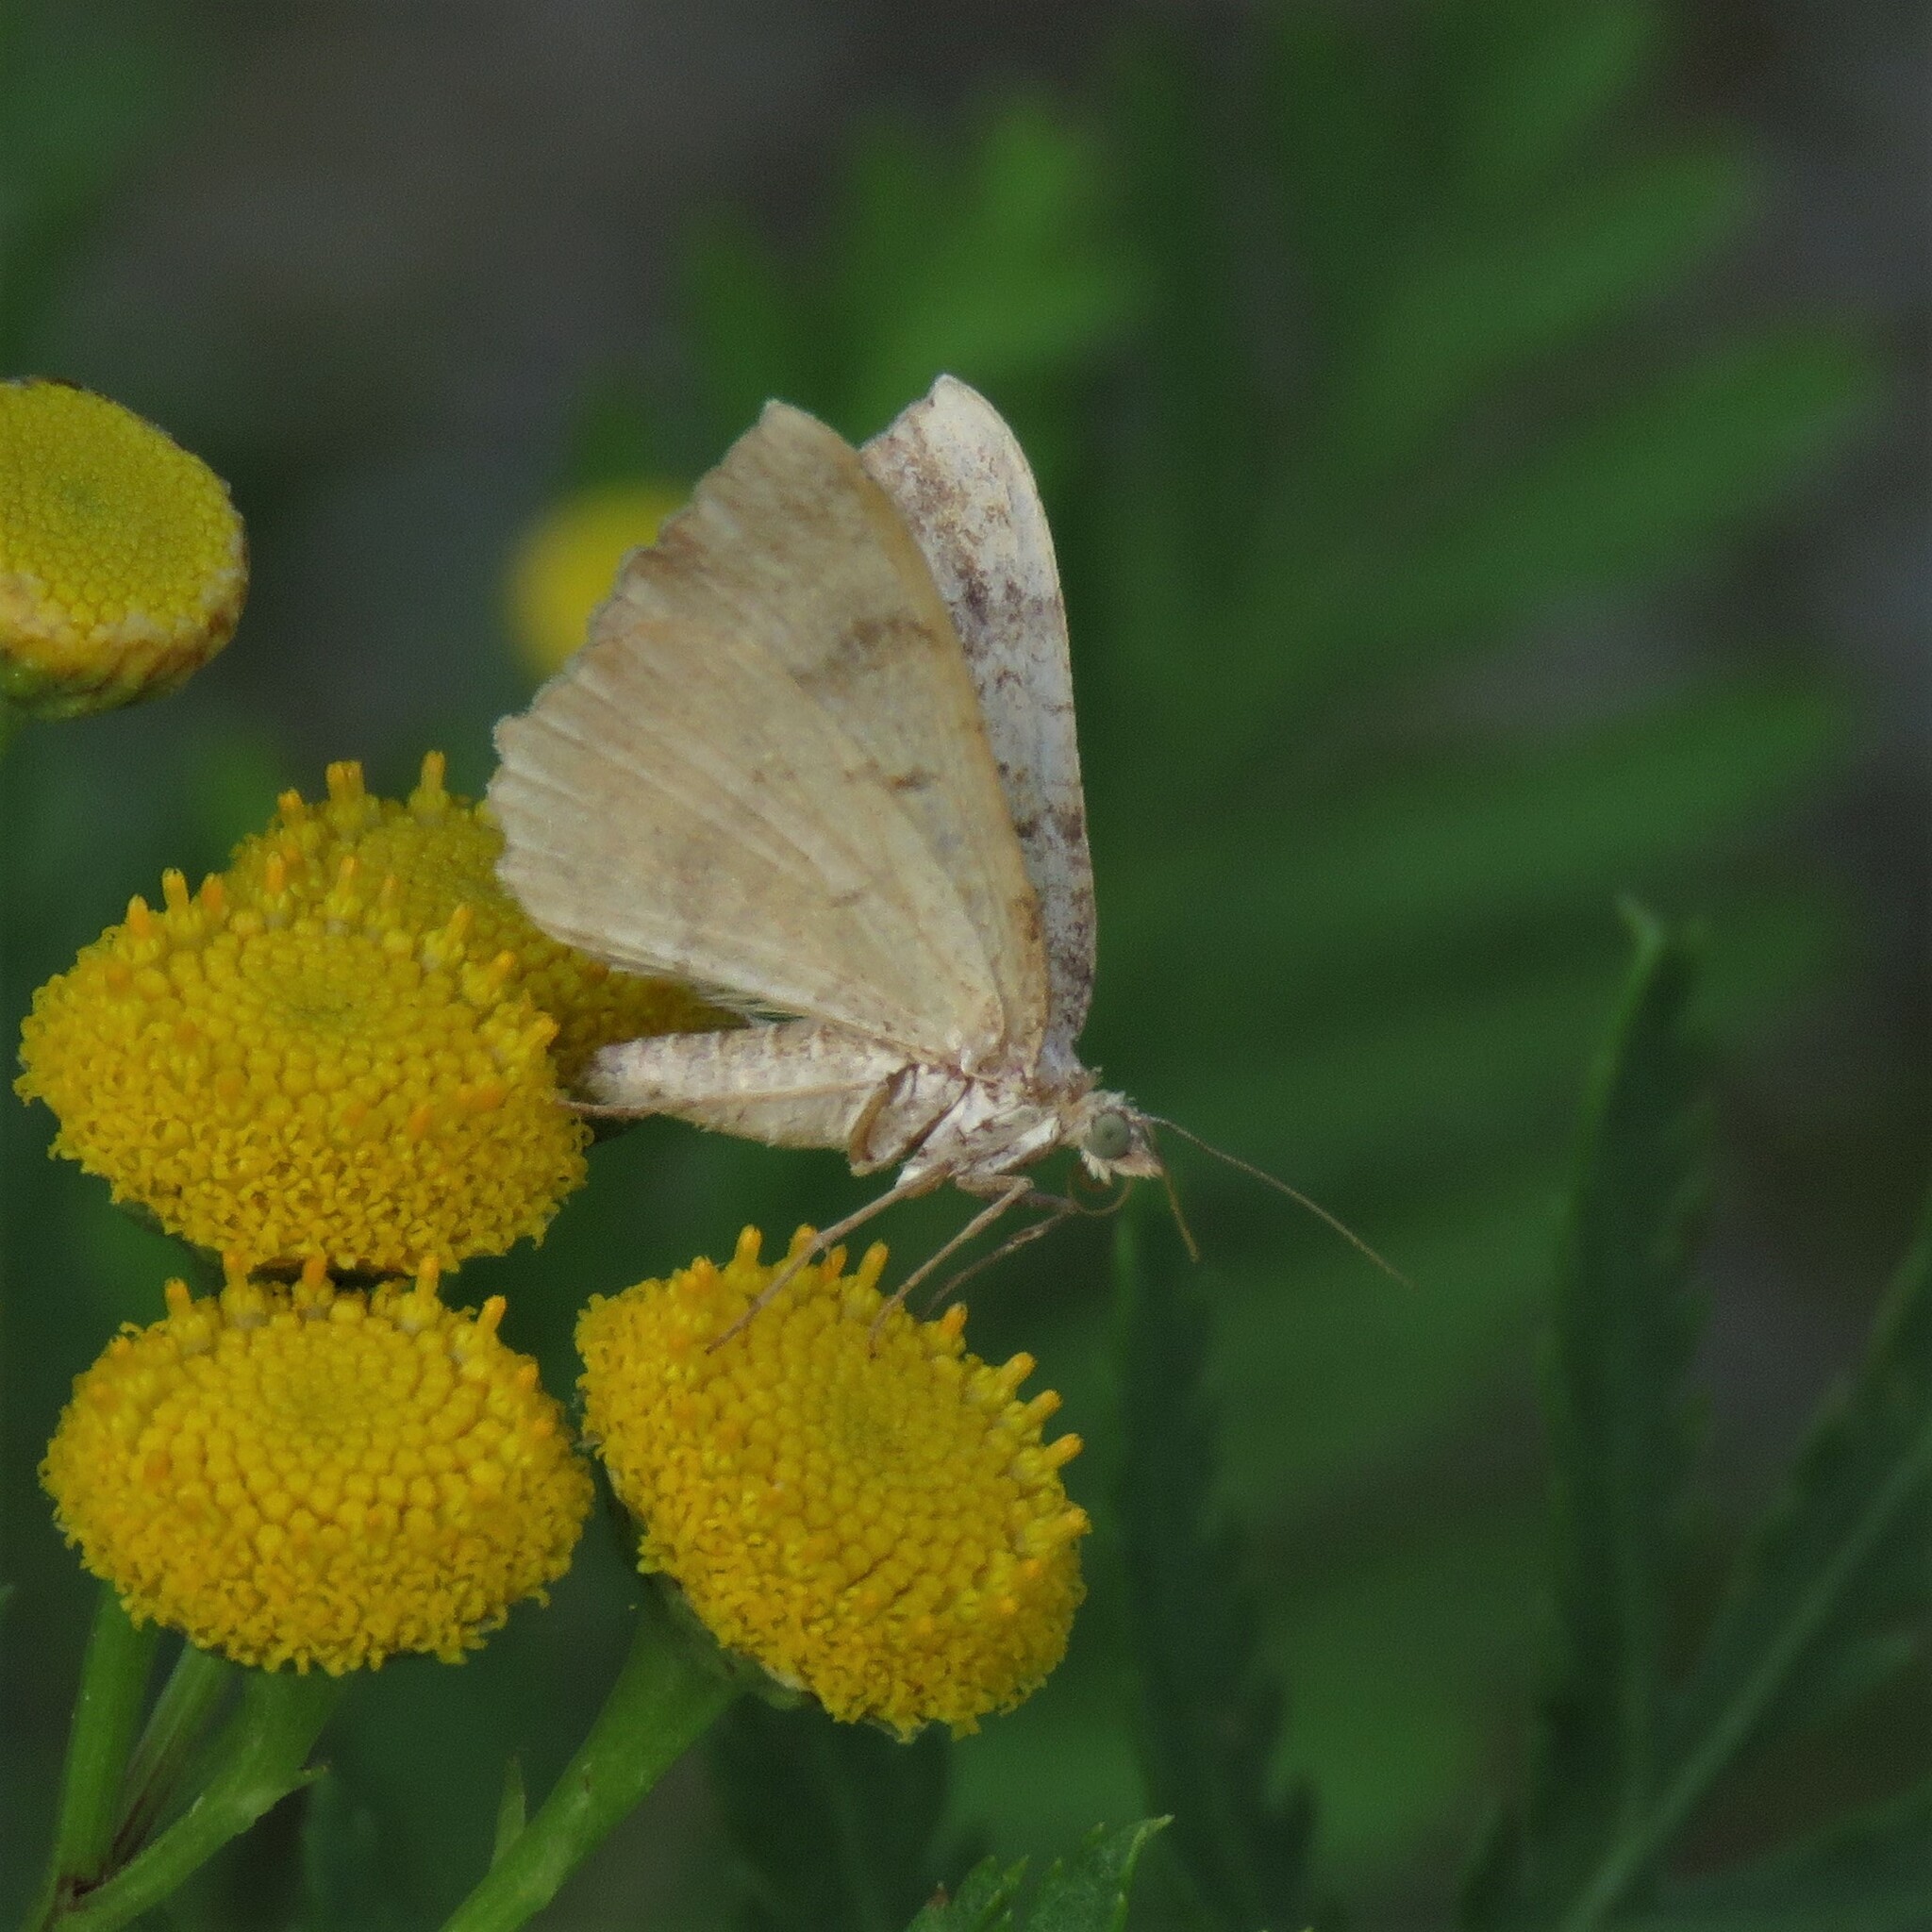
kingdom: Animalia
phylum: Arthropoda
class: Insecta
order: Lepidoptera
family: Geometridae
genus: Camptogramma
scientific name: Camptogramma bilineata
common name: Yellow shell
